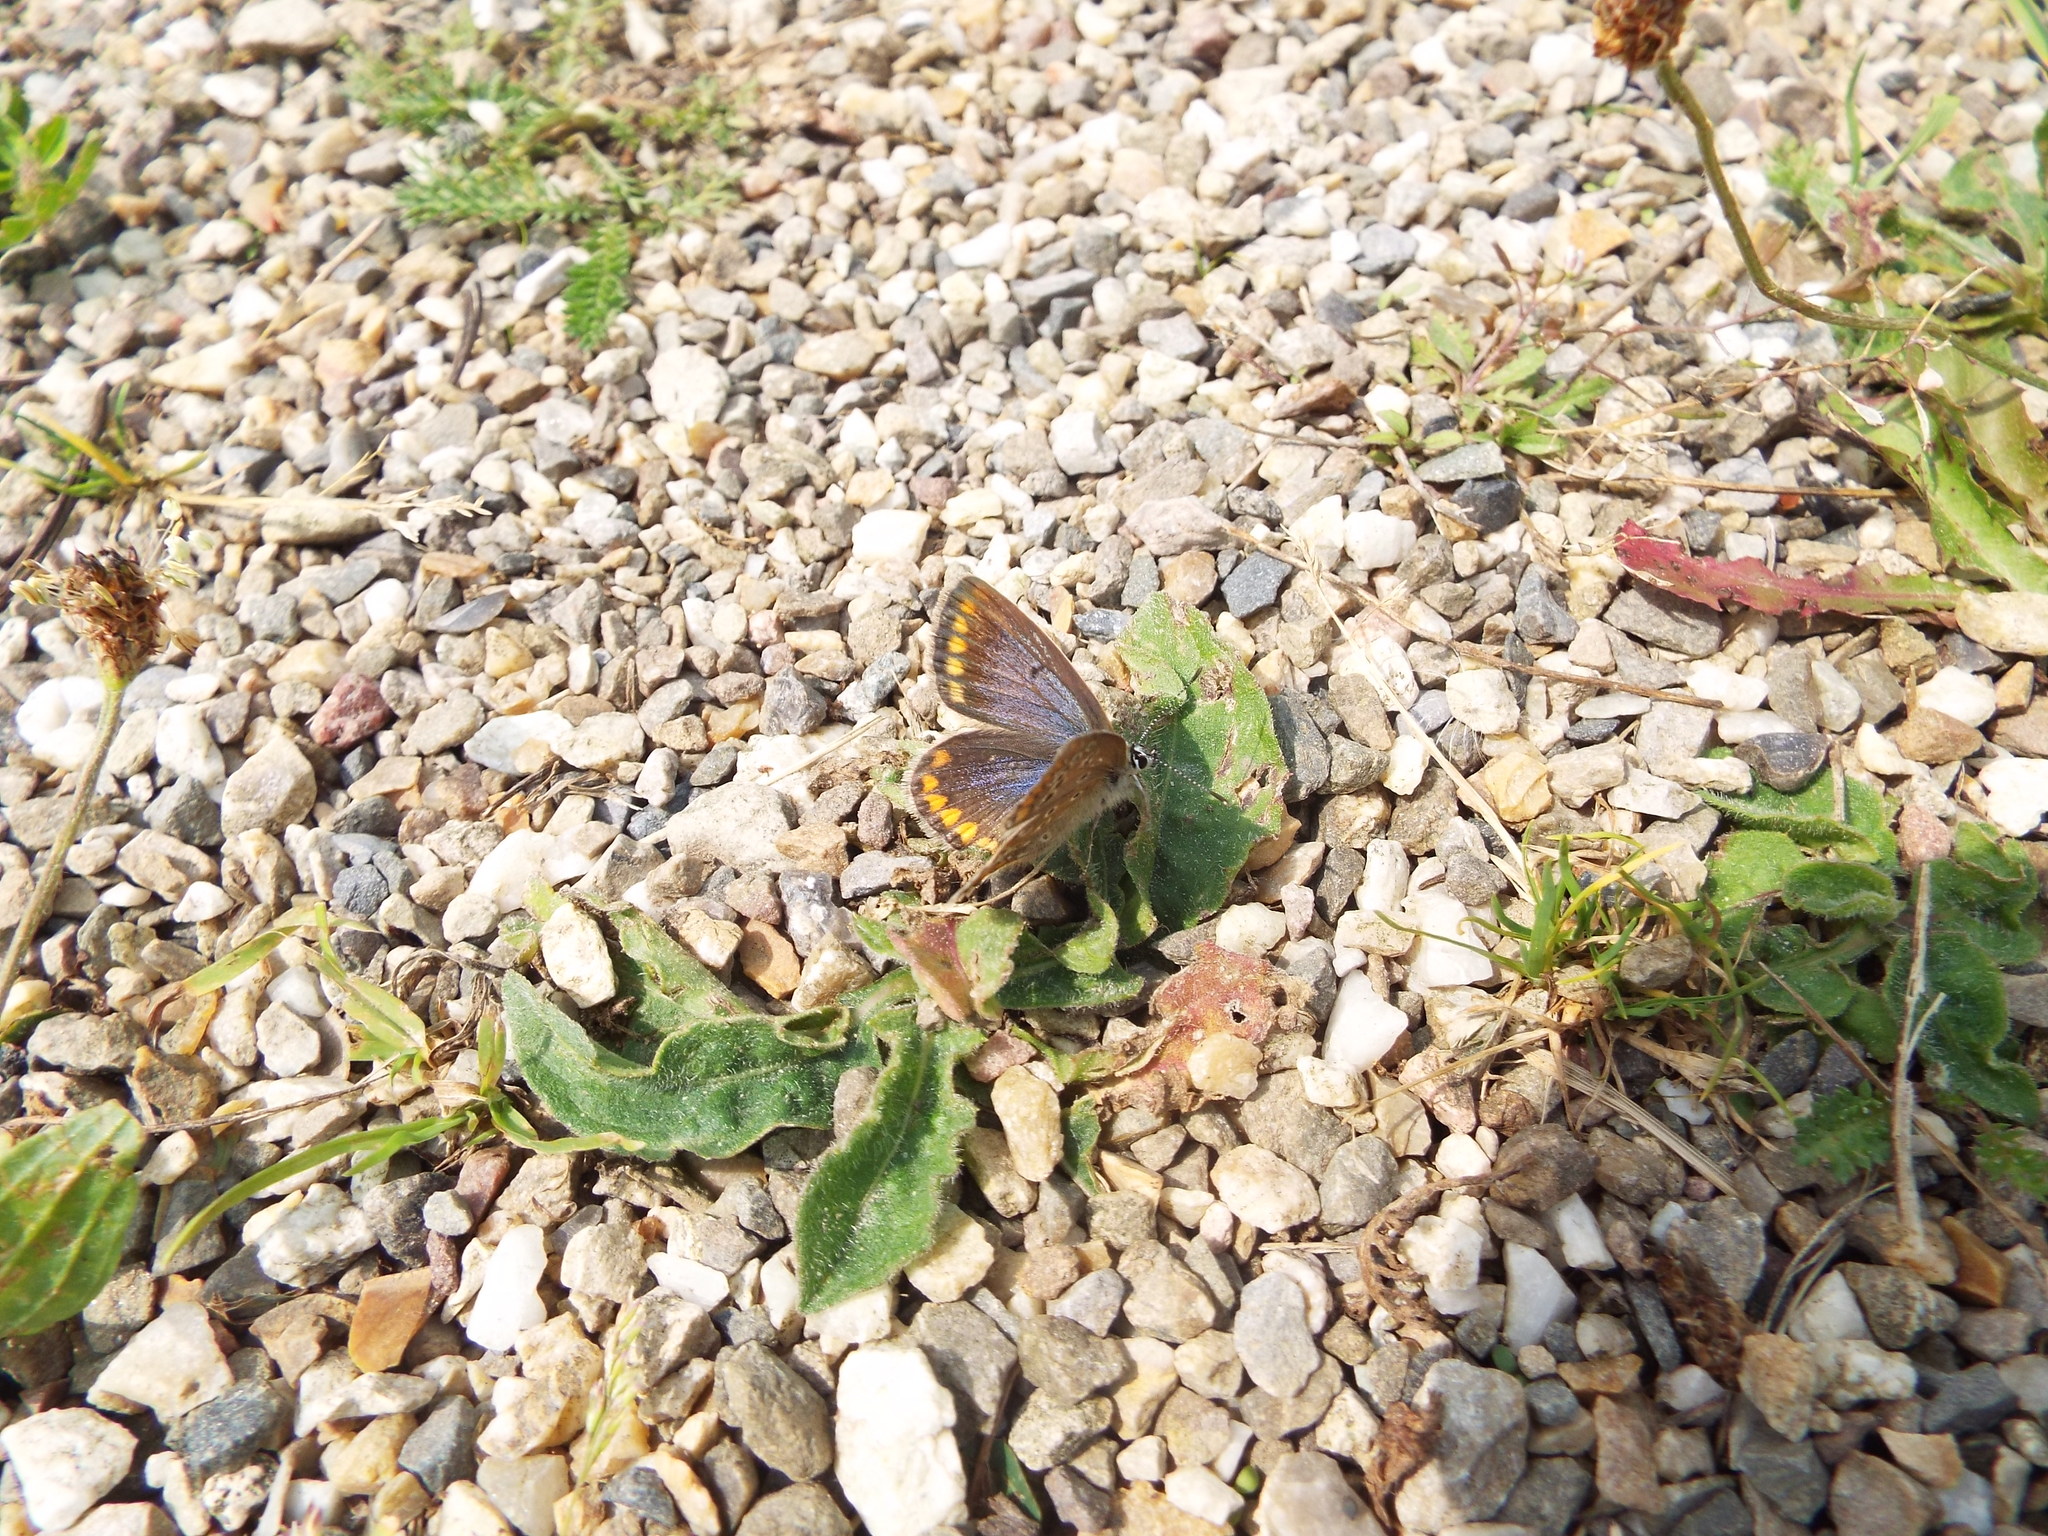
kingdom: Animalia
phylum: Arthropoda
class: Insecta
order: Lepidoptera
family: Lycaenidae
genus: Polyommatus
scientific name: Polyommatus icarus
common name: Common blue
